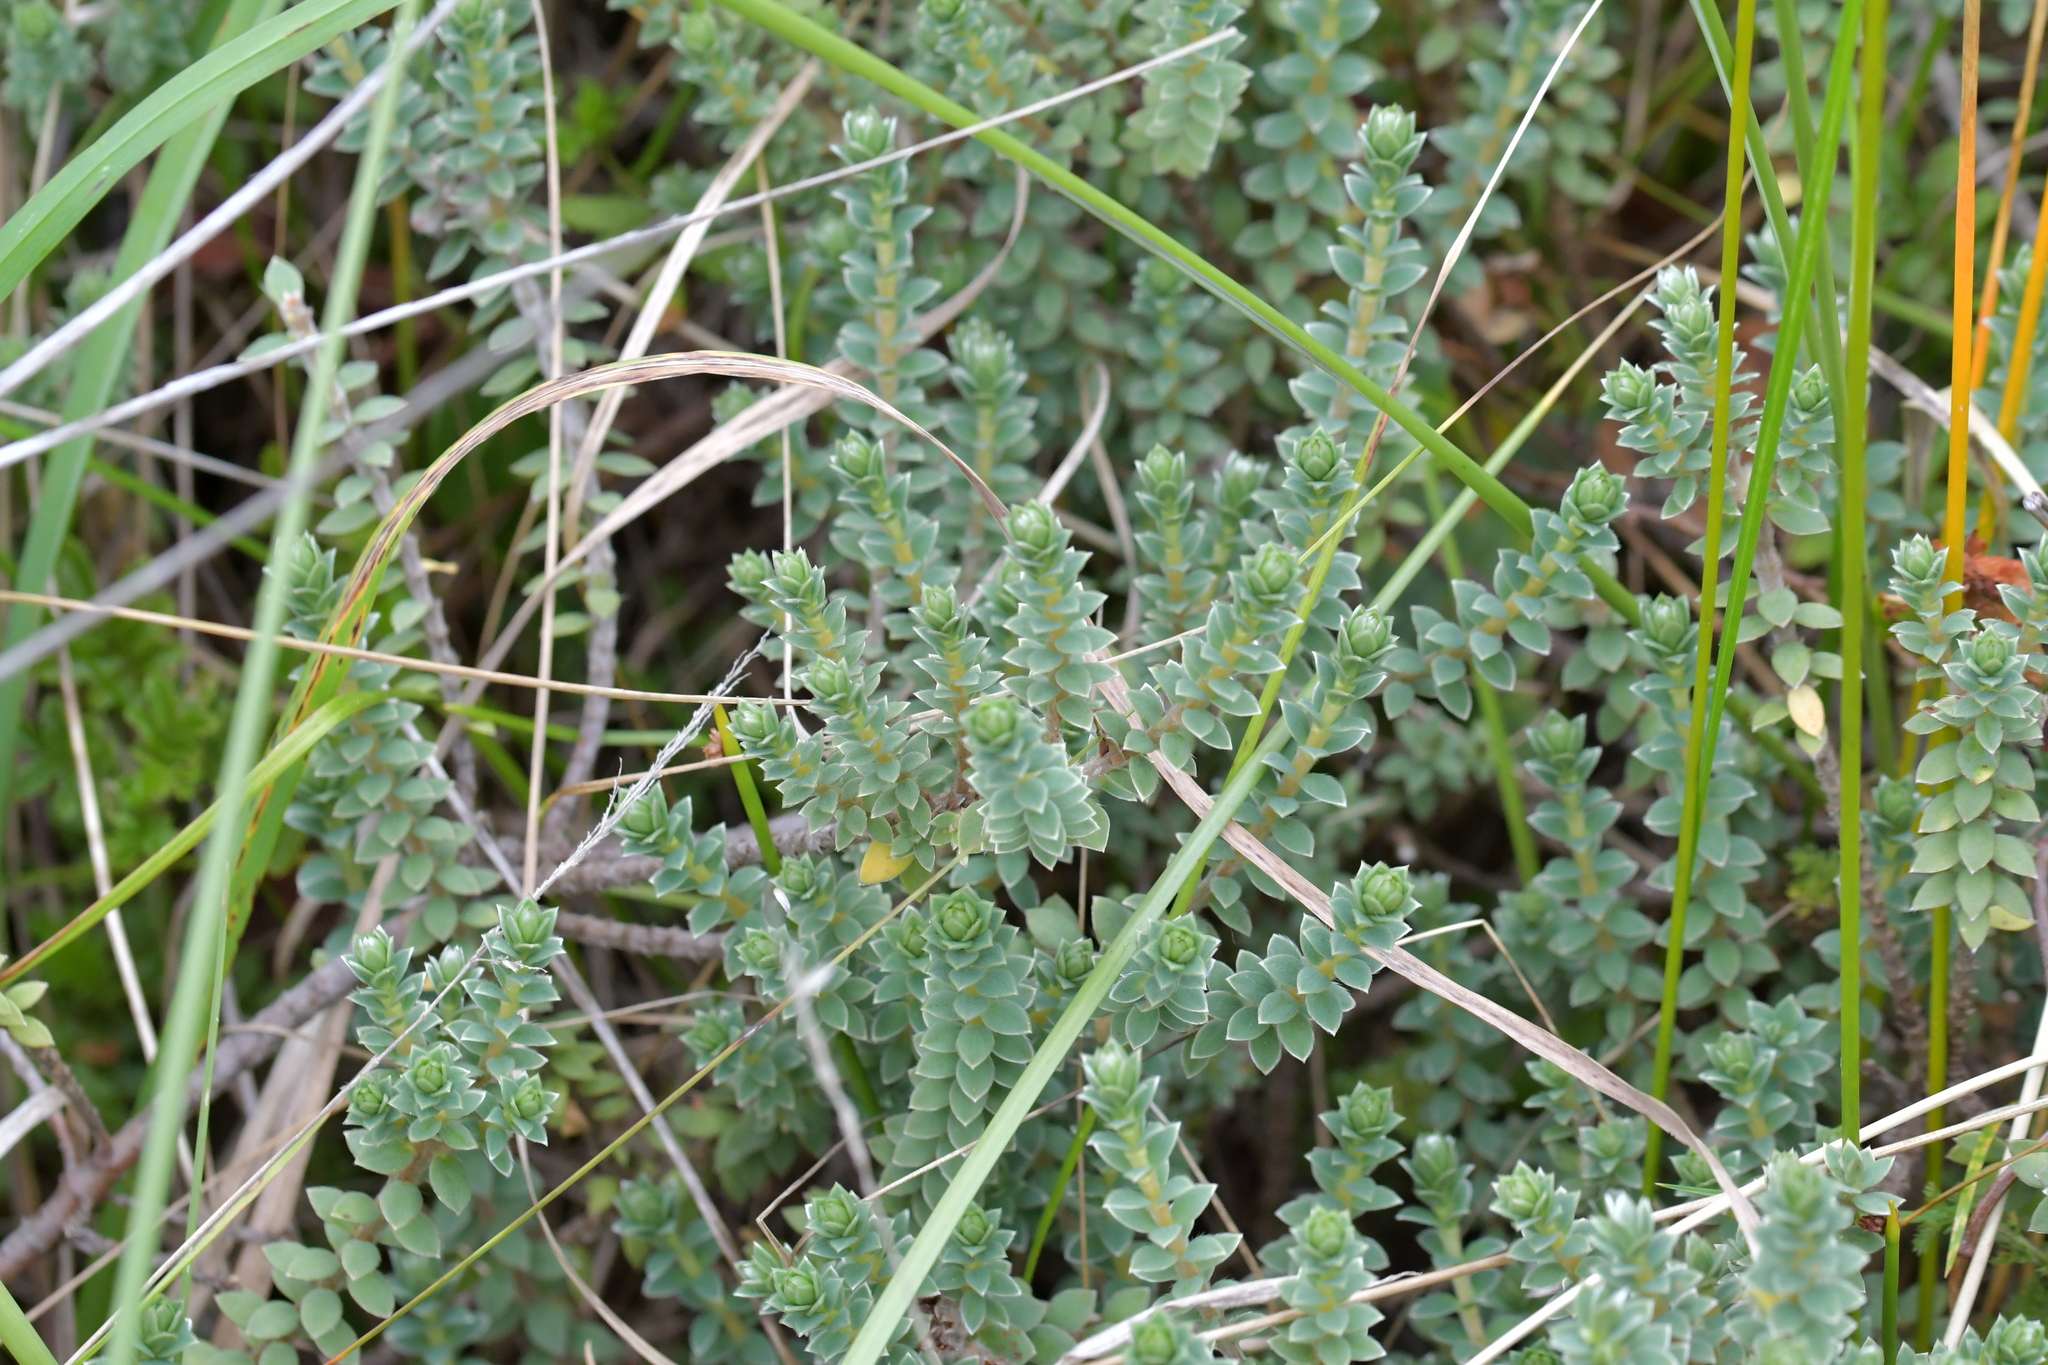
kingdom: Plantae
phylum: Tracheophyta
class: Magnoliopsida
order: Malvales
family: Thymelaeaceae
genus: Pimelea
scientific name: Pimelea villosa
